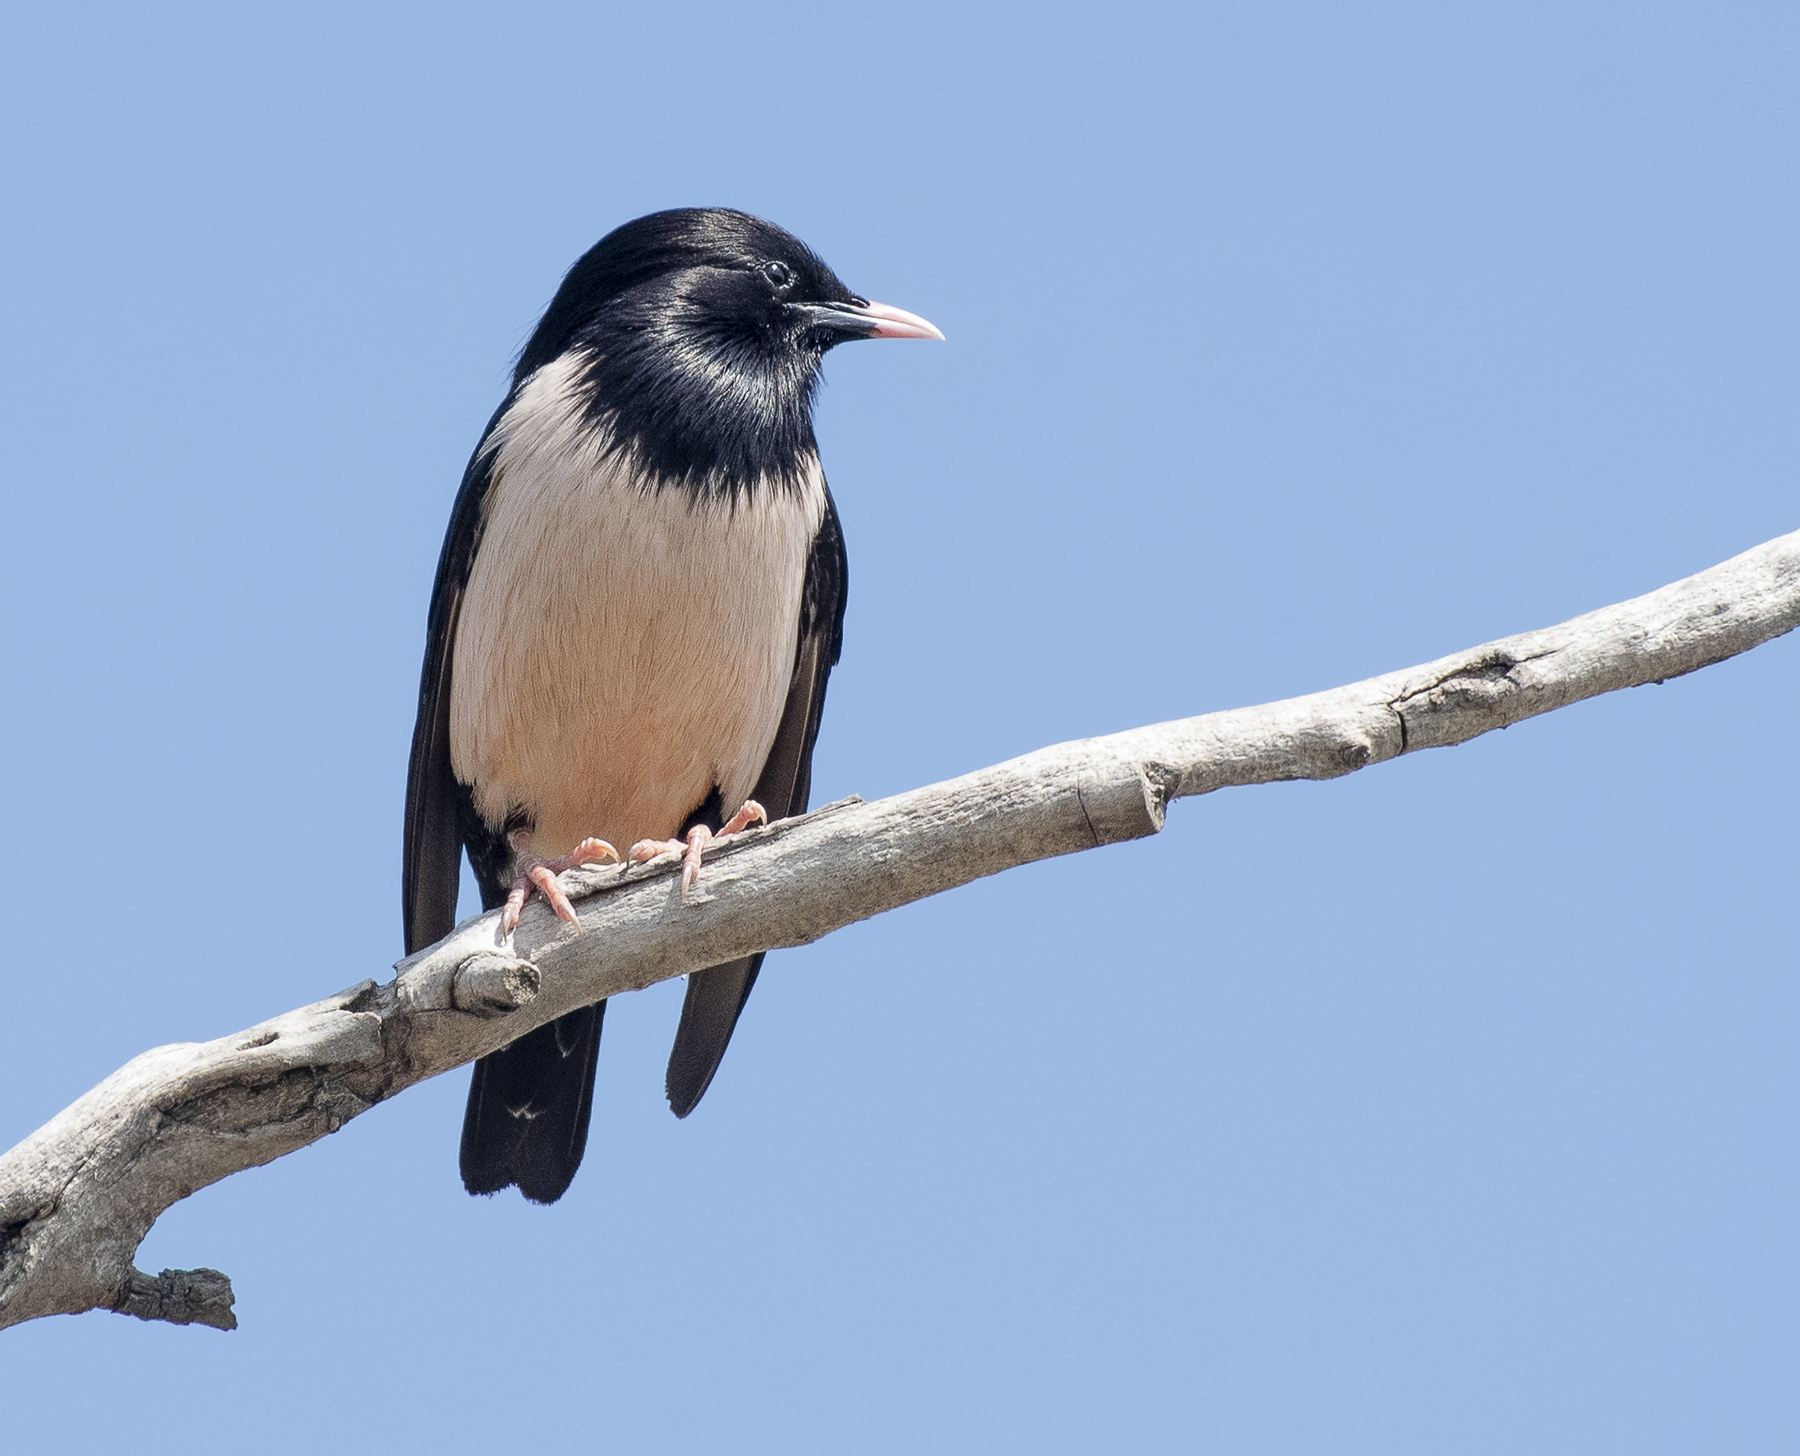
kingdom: Animalia
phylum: Chordata
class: Aves
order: Passeriformes
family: Sturnidae
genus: Pastor
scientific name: Pastor roseus
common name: Rosy starling
